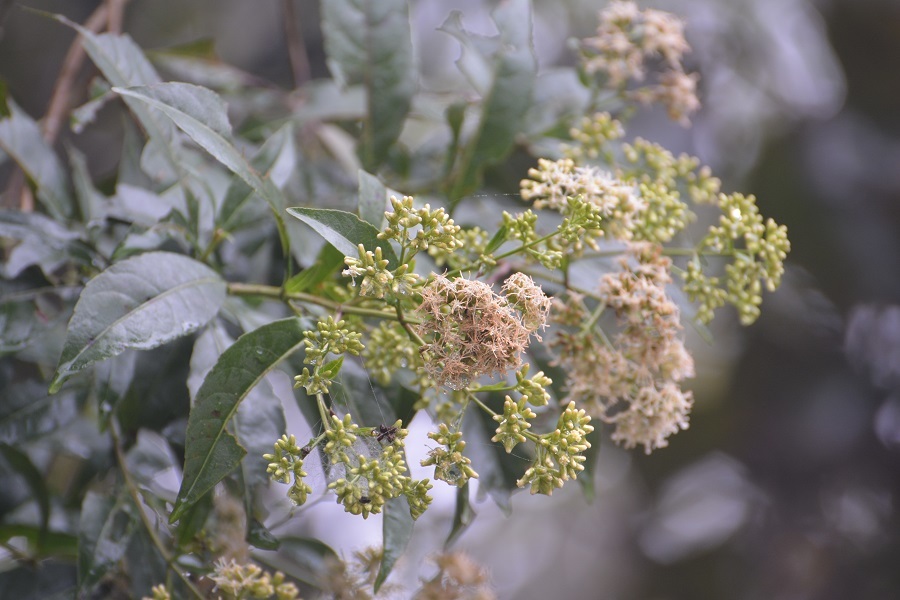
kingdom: Plantae
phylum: Tracheophyta
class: Magnoliopsida
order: Asterales
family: Asteraceae
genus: Critonia
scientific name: Critonia hospitalis
